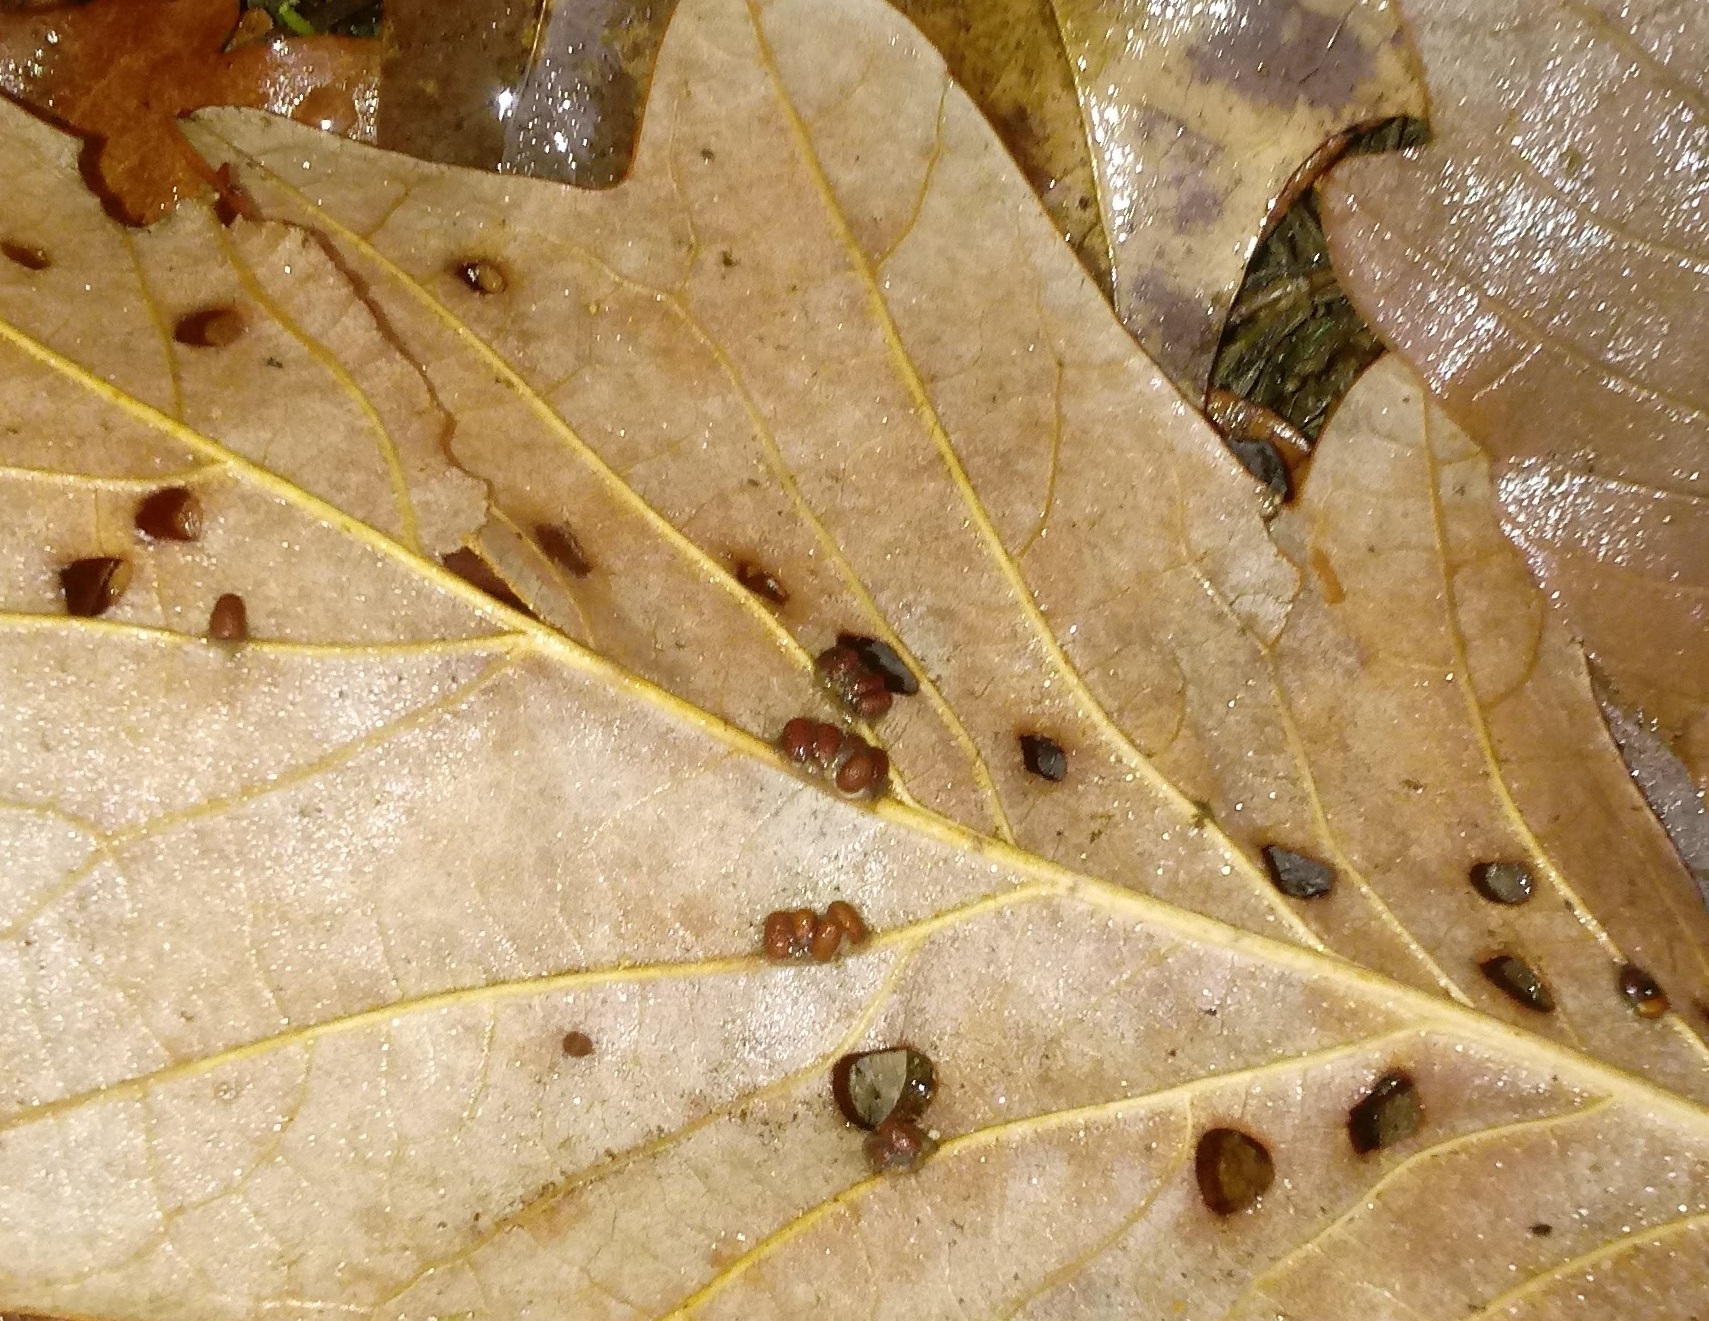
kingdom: Animalia
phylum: Arthropoda
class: Insecta
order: Hymenoptera
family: Cynipidae
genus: Andricus
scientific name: Andricus Druon ignotum
